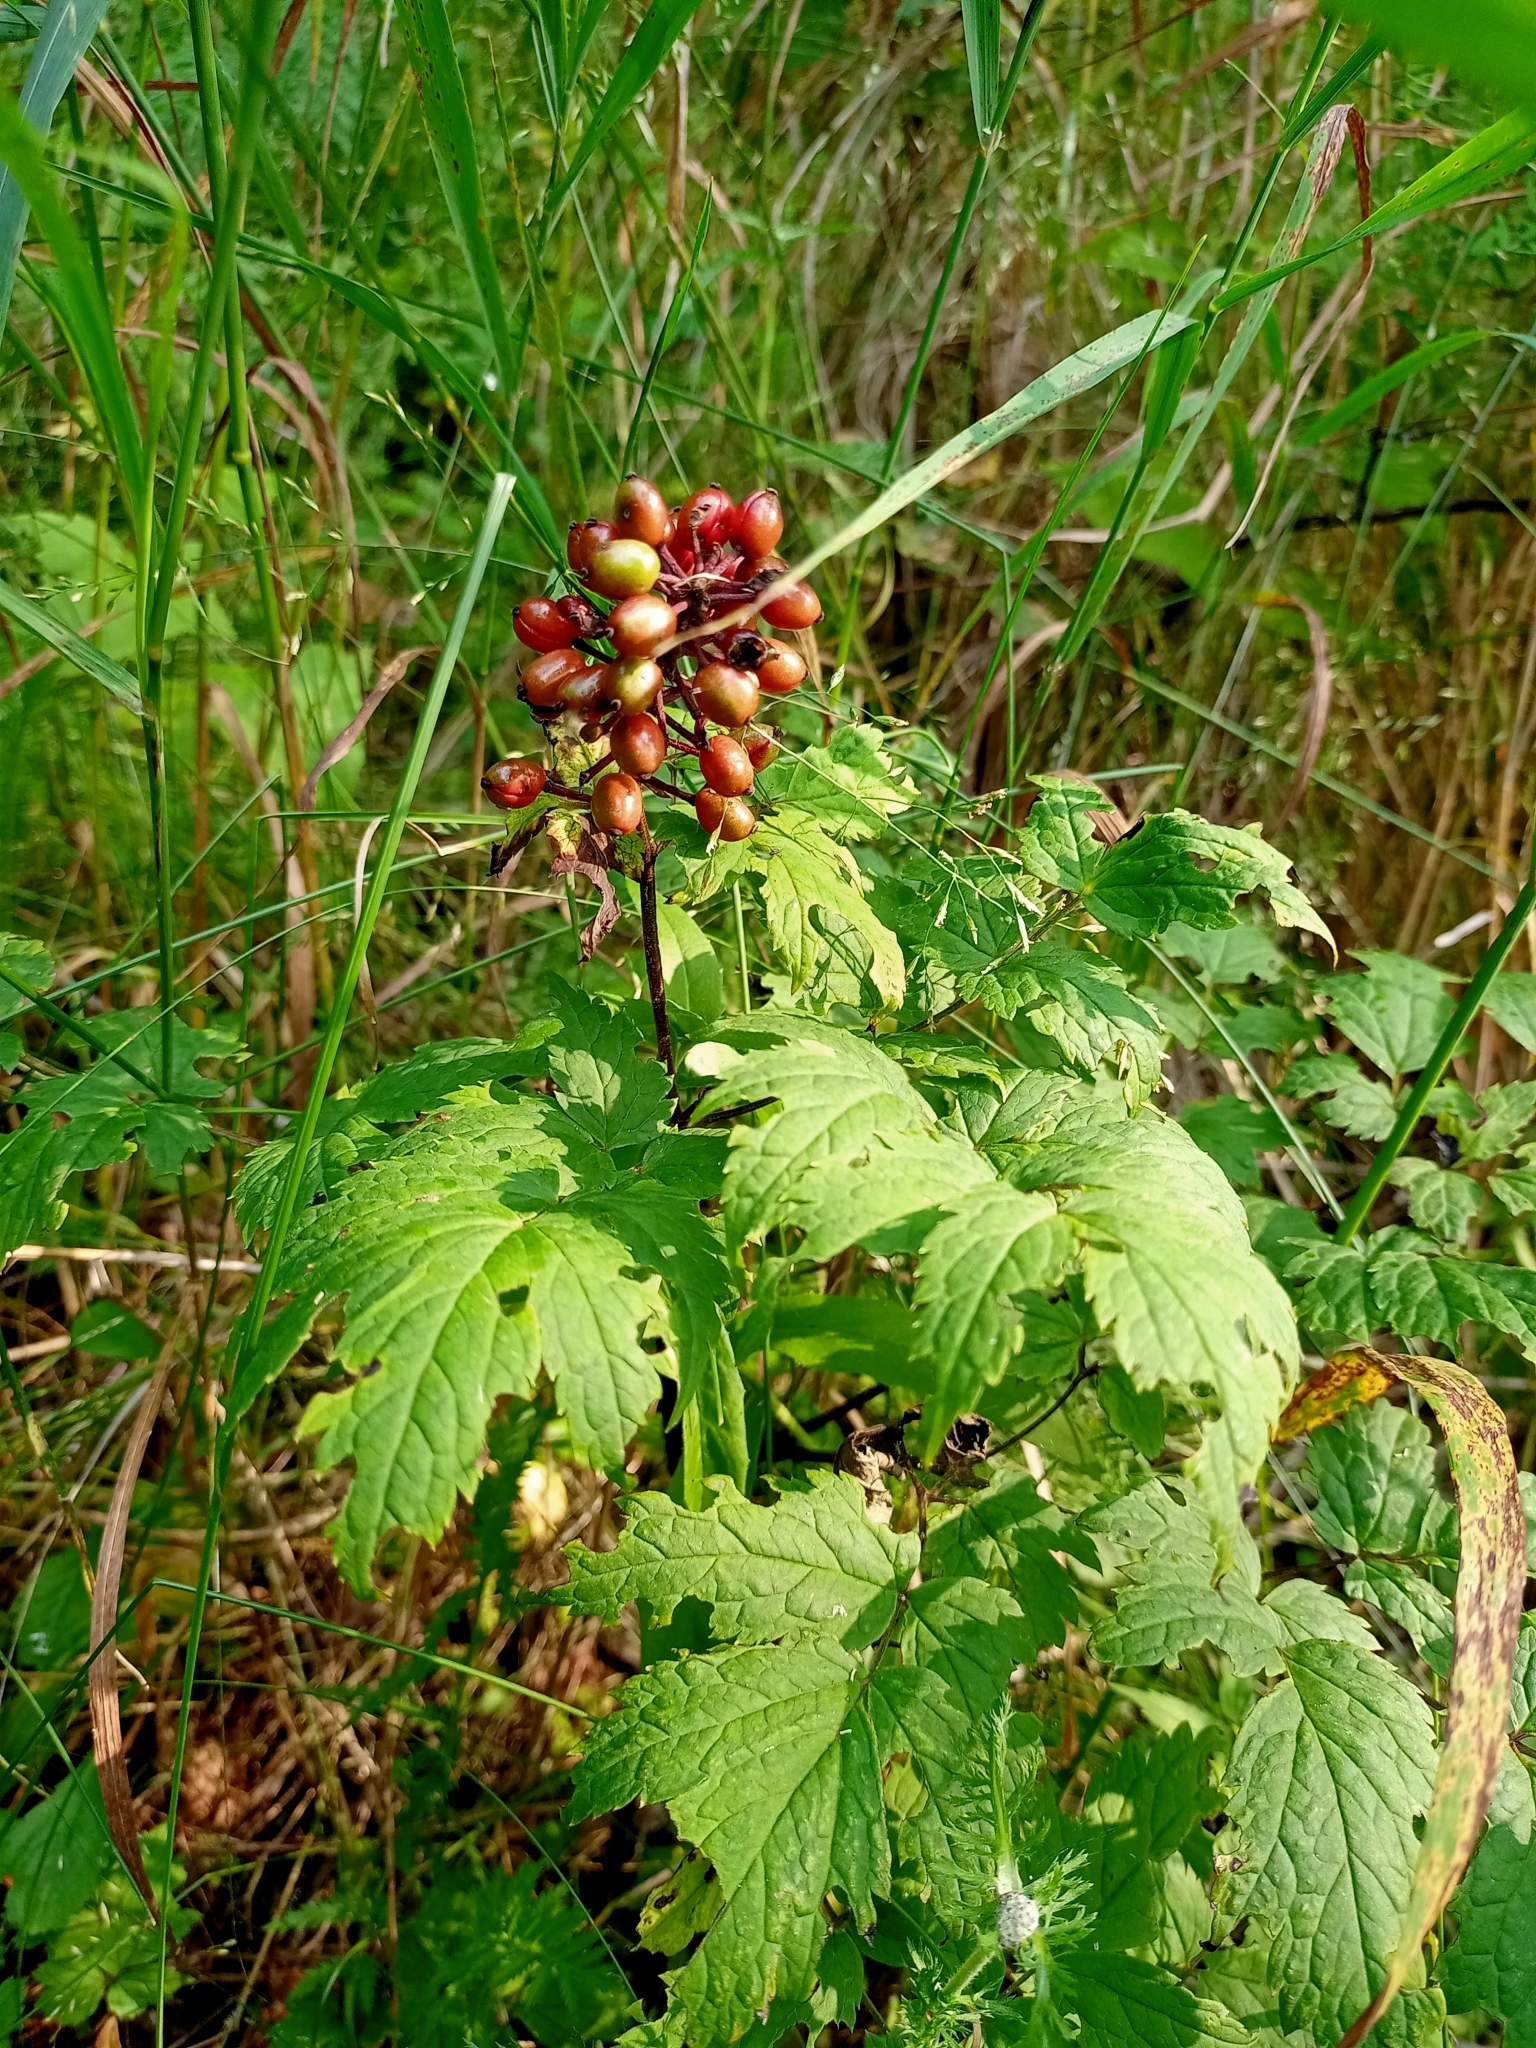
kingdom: Plantae
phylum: Tracheophyta
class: Magnoliopsida
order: Ranunculales
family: Ranunculaceae
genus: Actaea
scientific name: Actaea erythrocarpa
